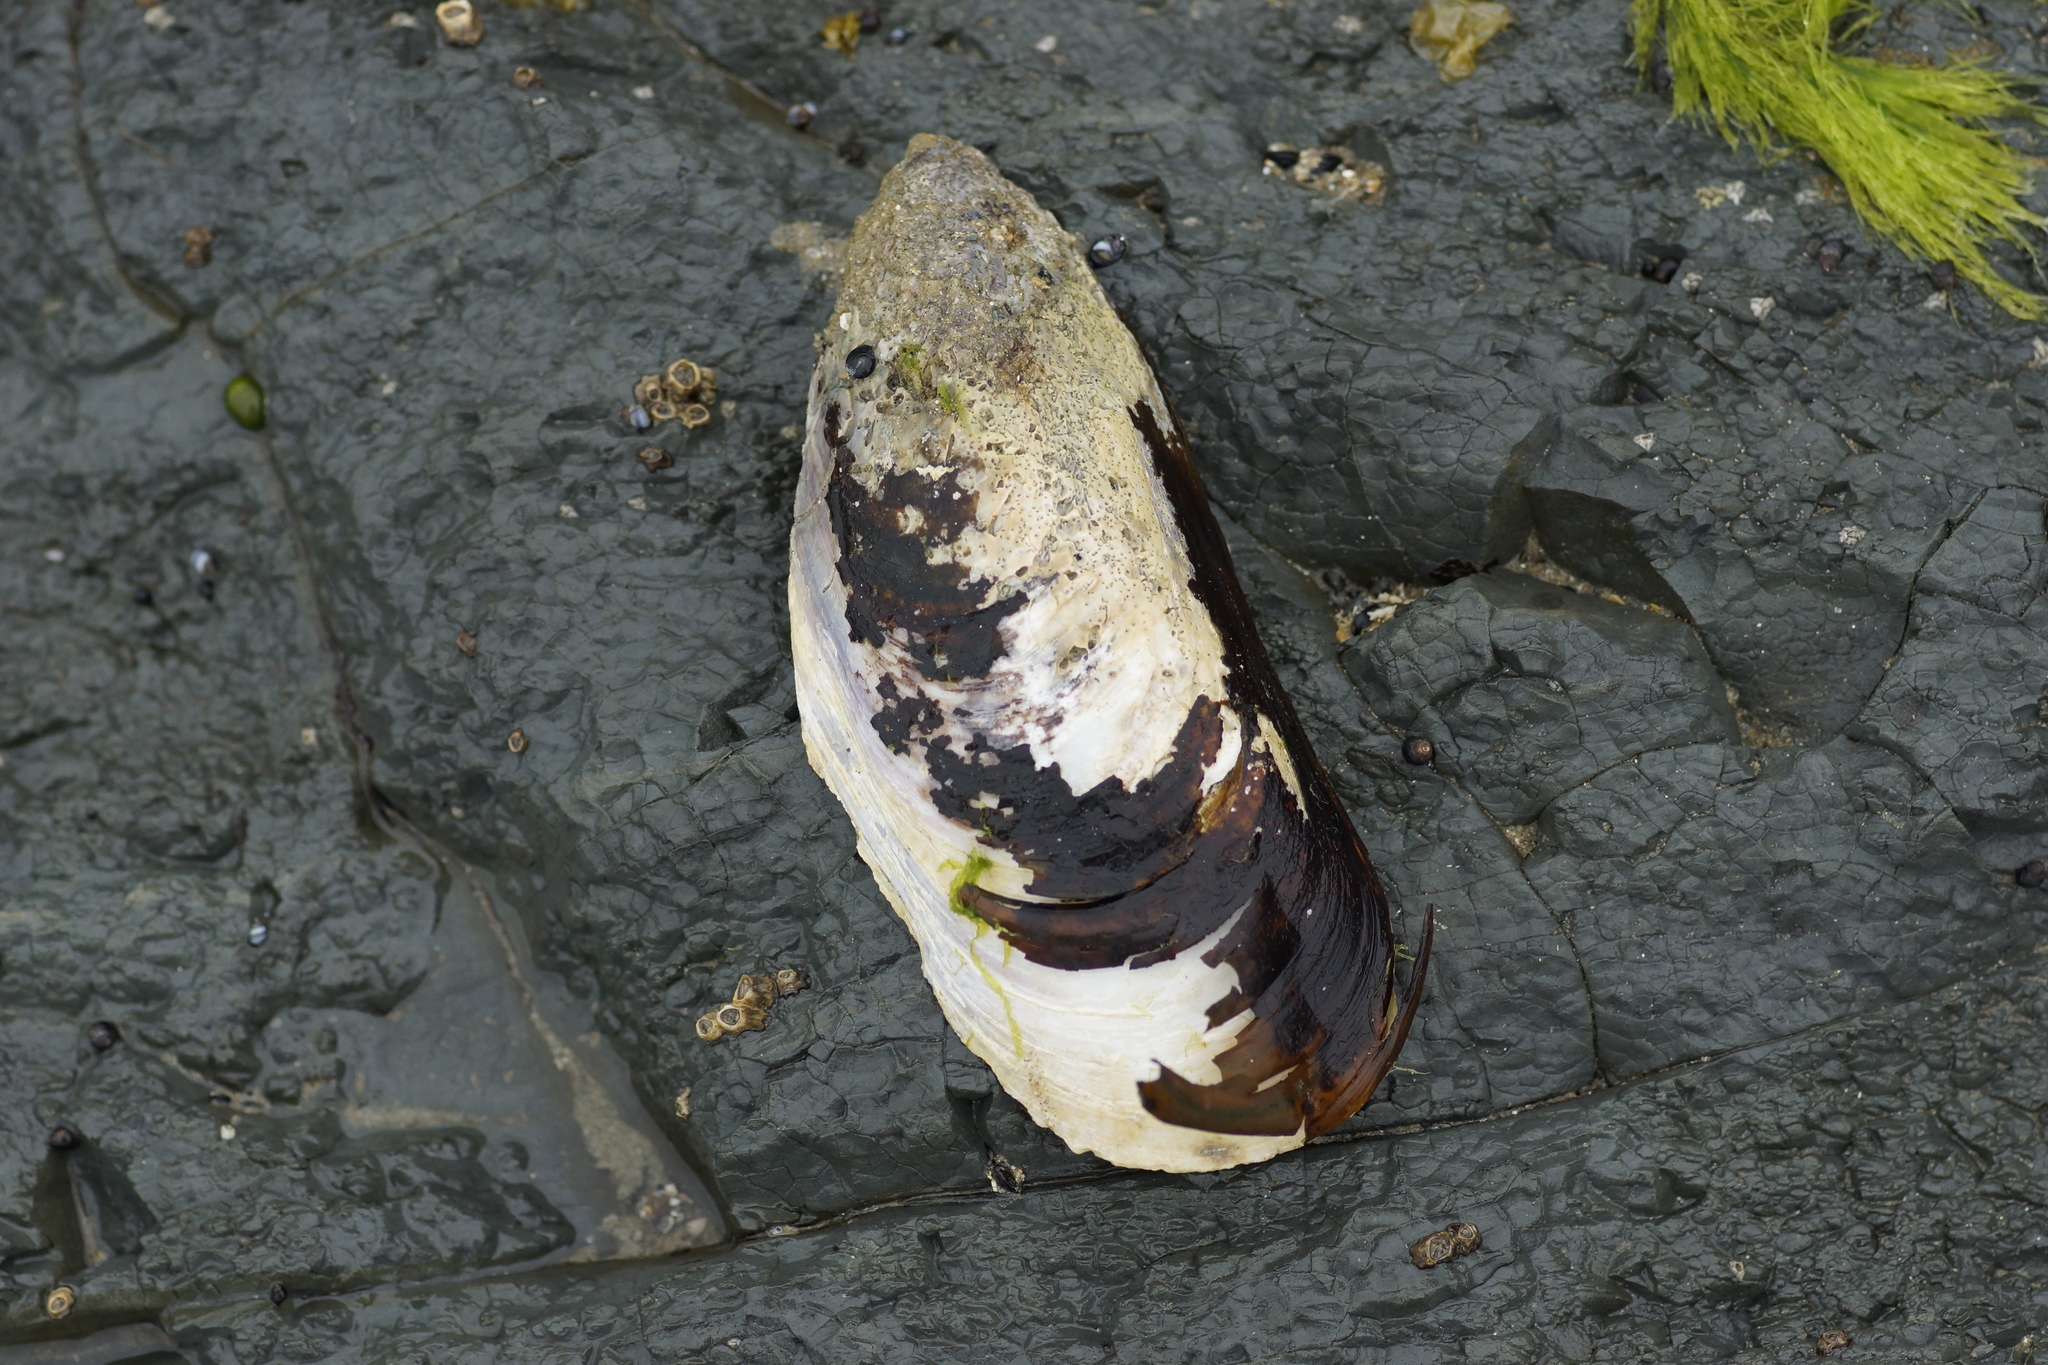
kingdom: Animalia
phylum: Mollusca
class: Bivalvia
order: Mytilida
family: Mytilidae
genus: Perna
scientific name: Perna canaliculus
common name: New zealand greenshelltm
